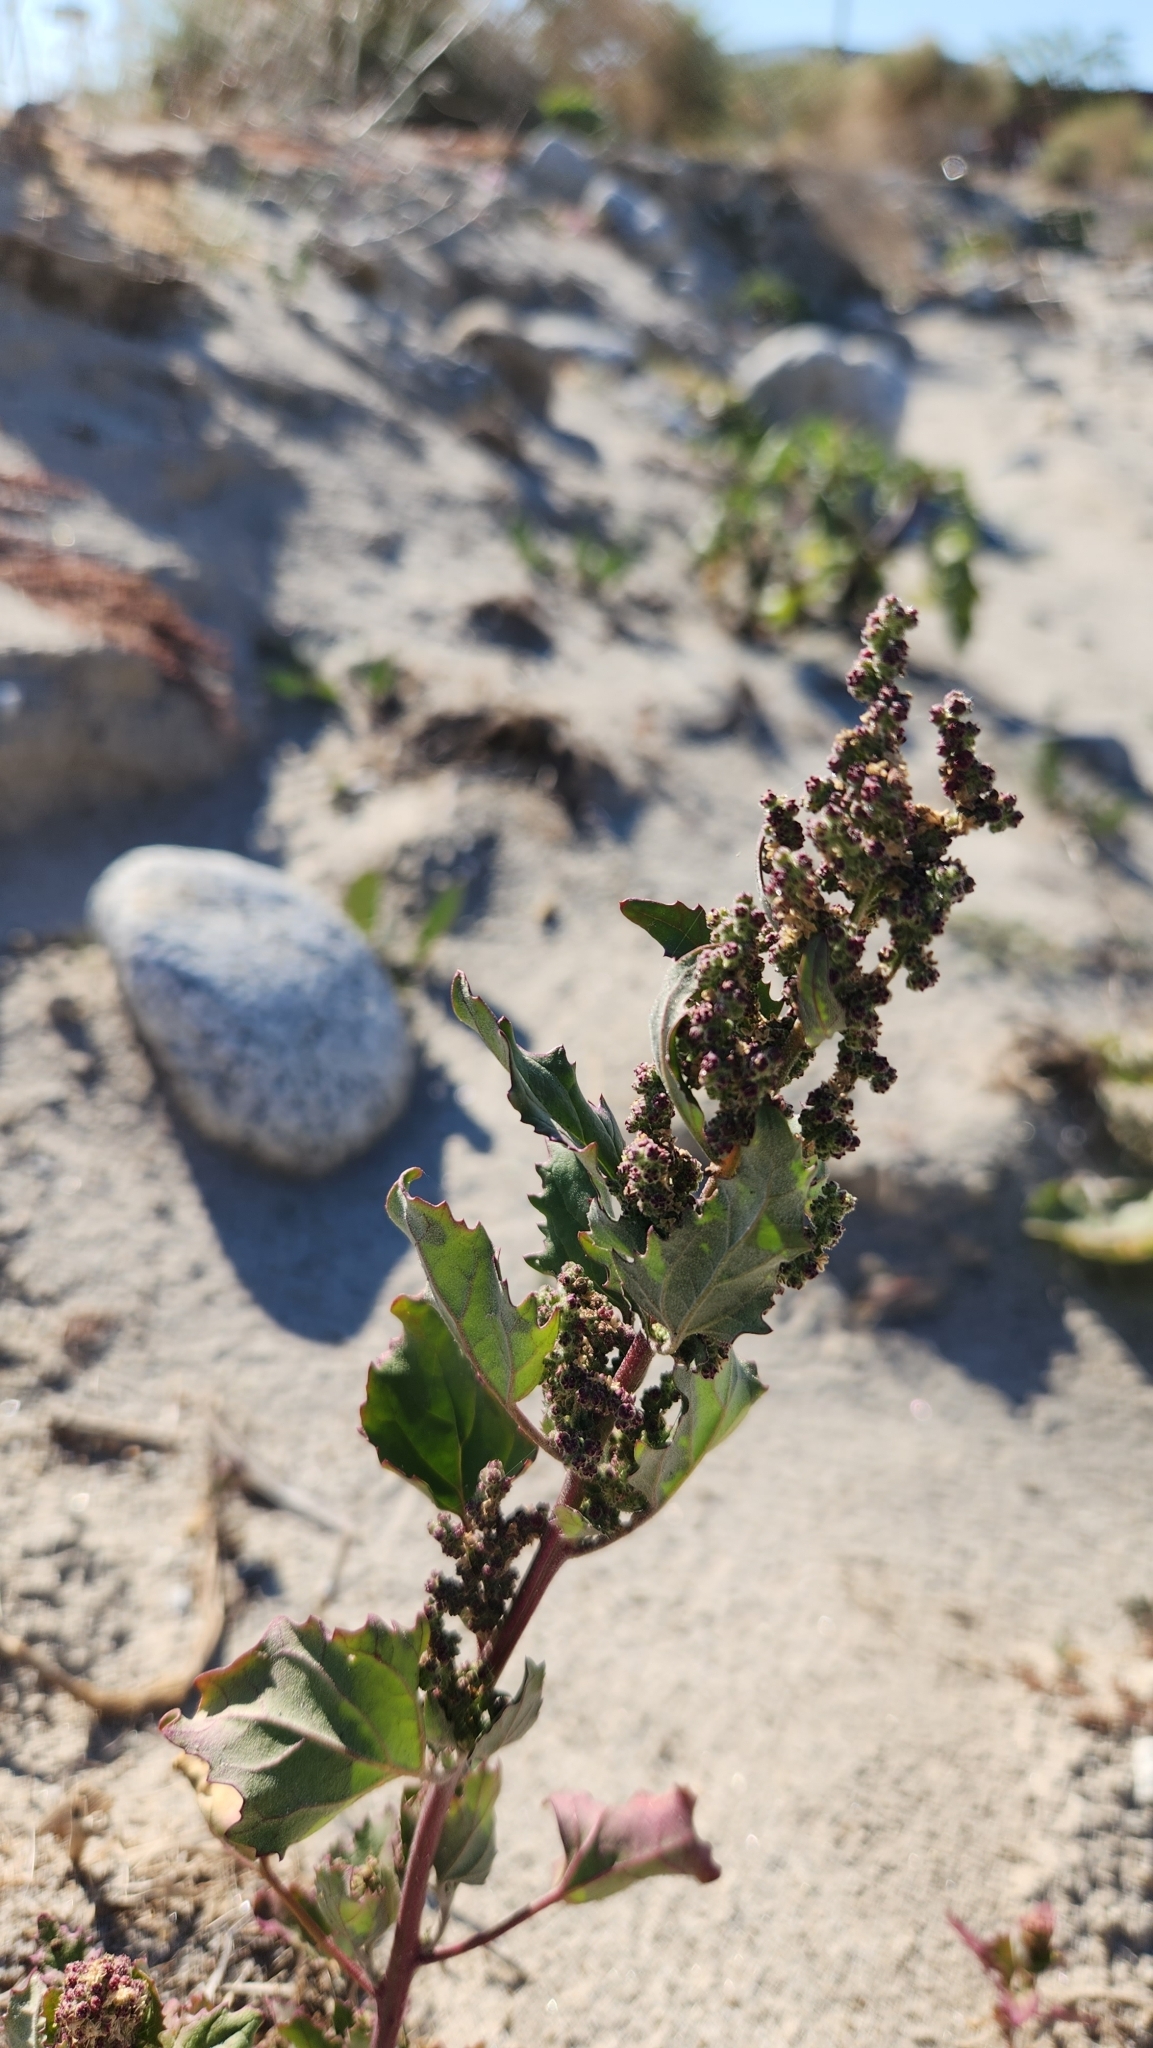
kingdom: Plantae
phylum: Tracheophyta
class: Magnoliopsida
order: Caryophyllales
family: Amaranthaceae
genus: Chenopodiastrum
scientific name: Chenopodiastrum murale
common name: Sowbane
